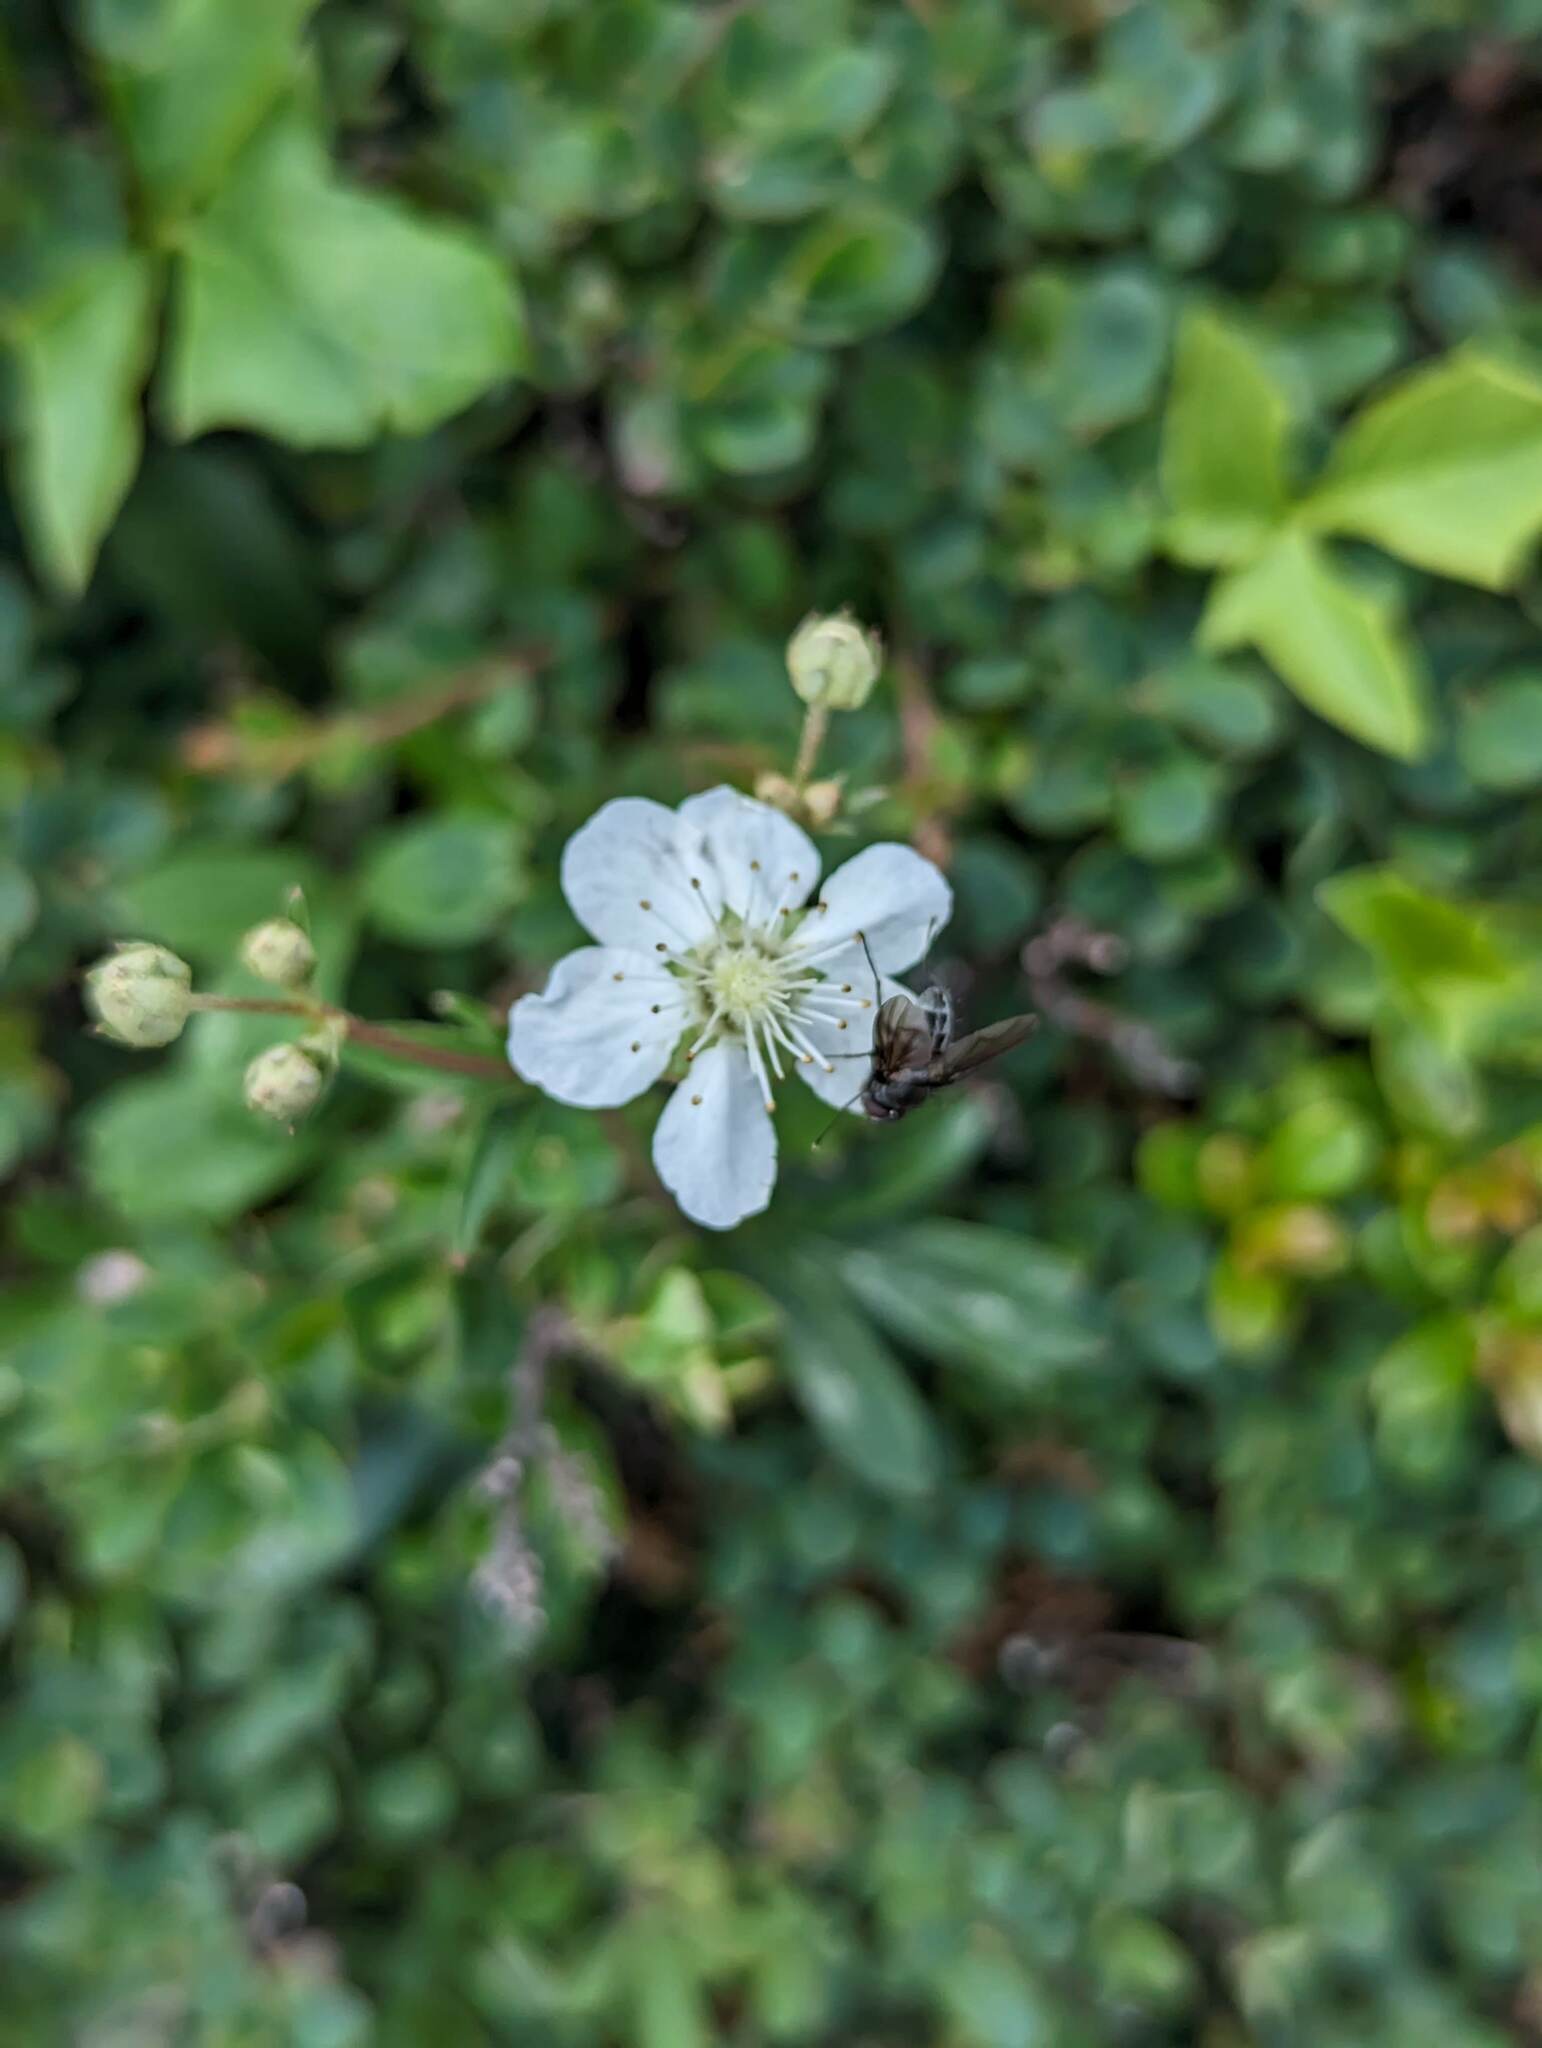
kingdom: Plantae
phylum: Tracheophyta
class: Magnoliopsida
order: Rosales
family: Rosaceae
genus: Sibbaldia
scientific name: Sibbaldia tridentata
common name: Three-toothed cinquefoil
